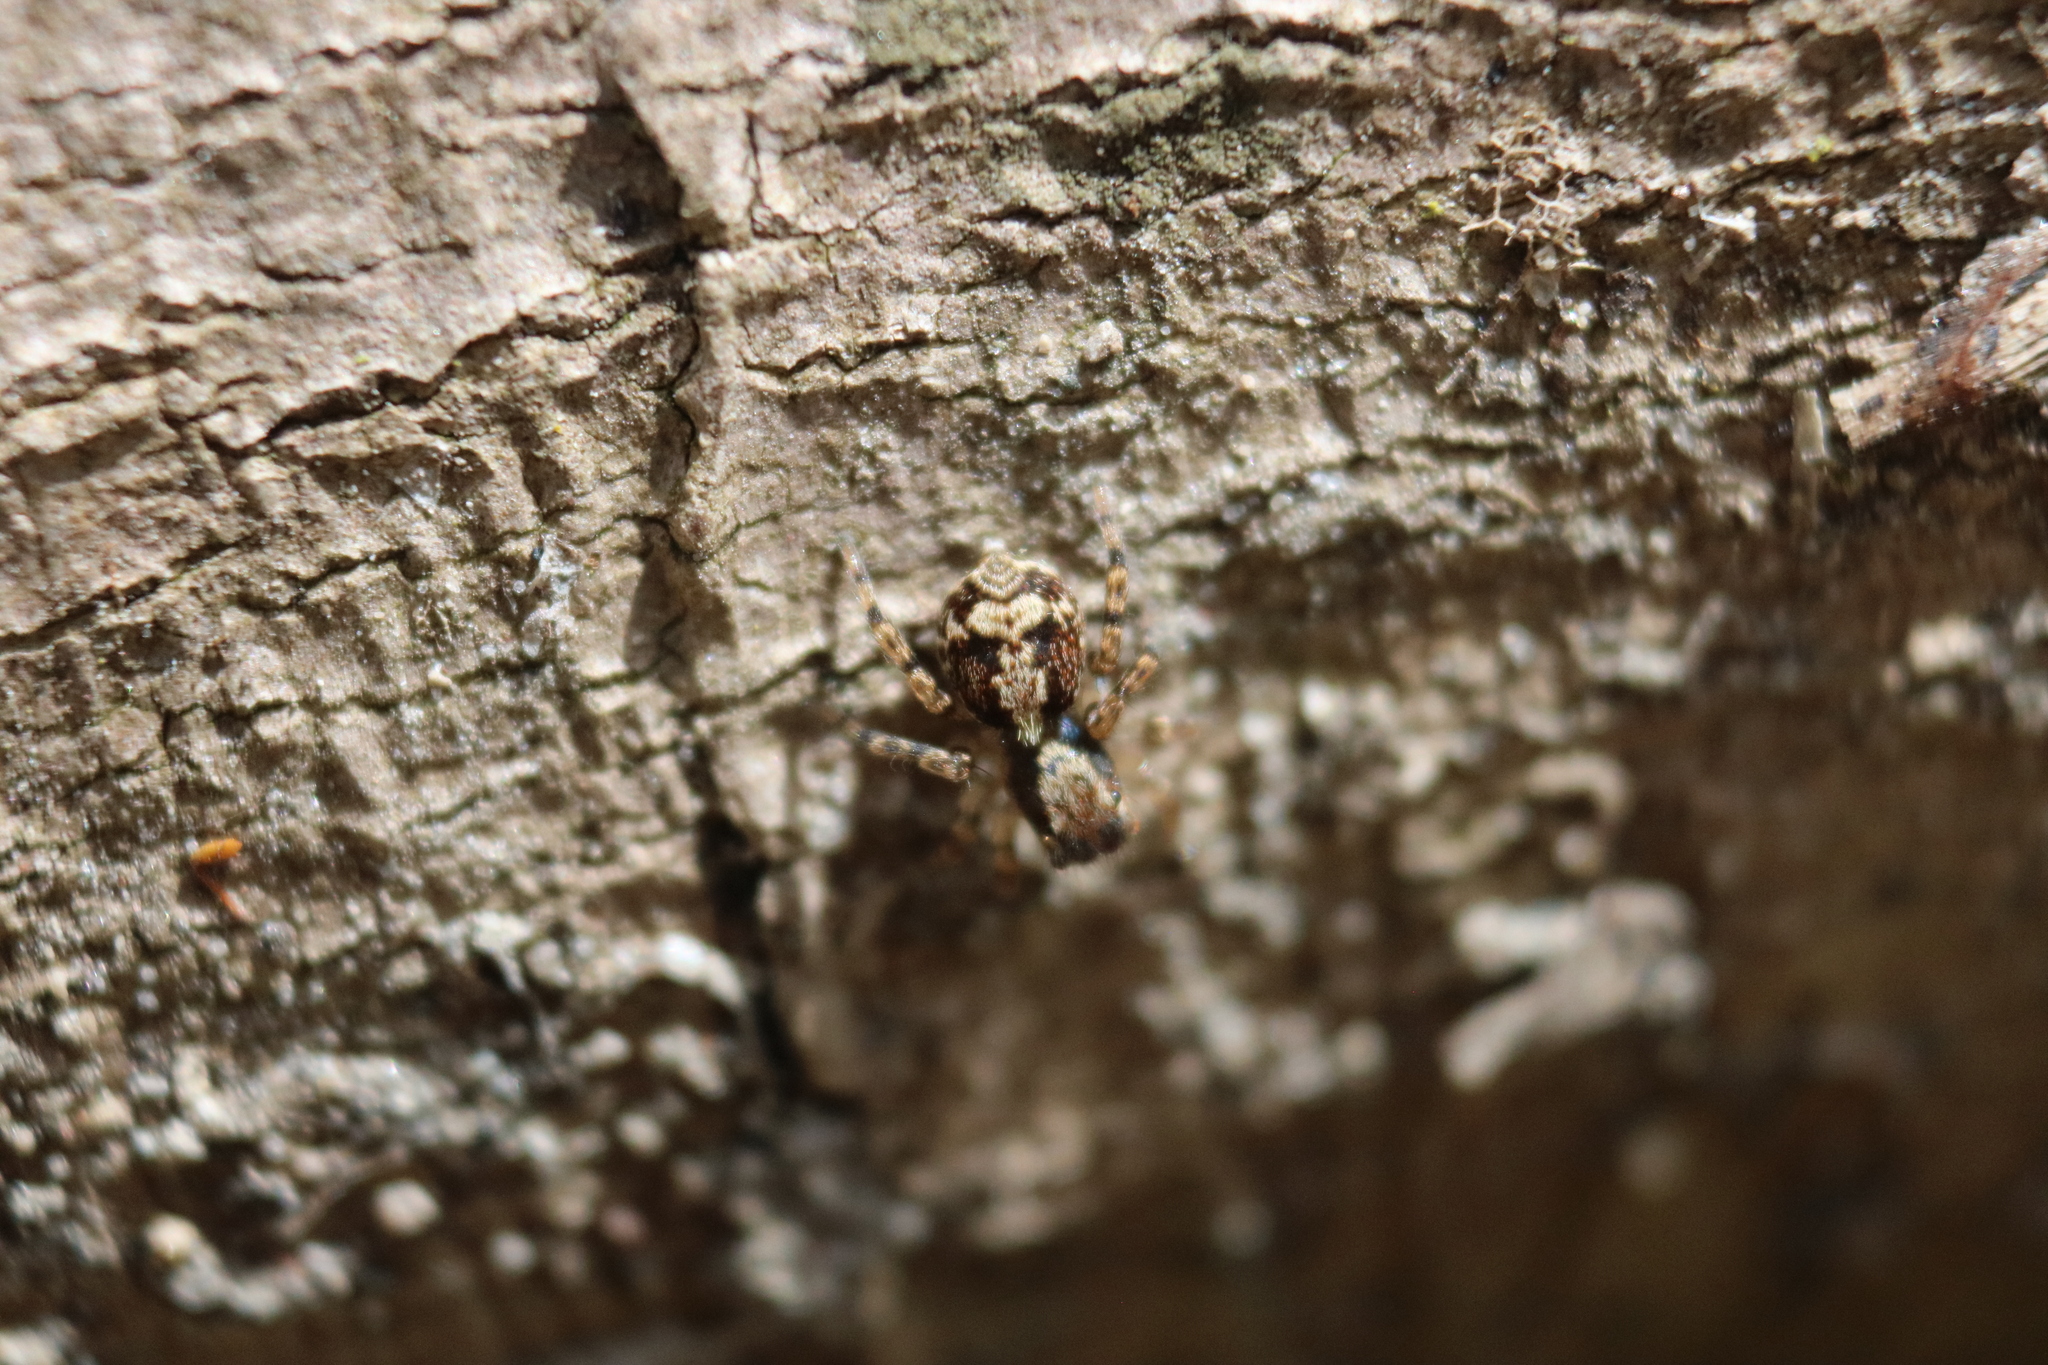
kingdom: Animalia
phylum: Arthropoda
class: Arachnida
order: Araneae
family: Salticidae
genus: Naphrys
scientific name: Naphrys pulex
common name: Flea jumping spider
